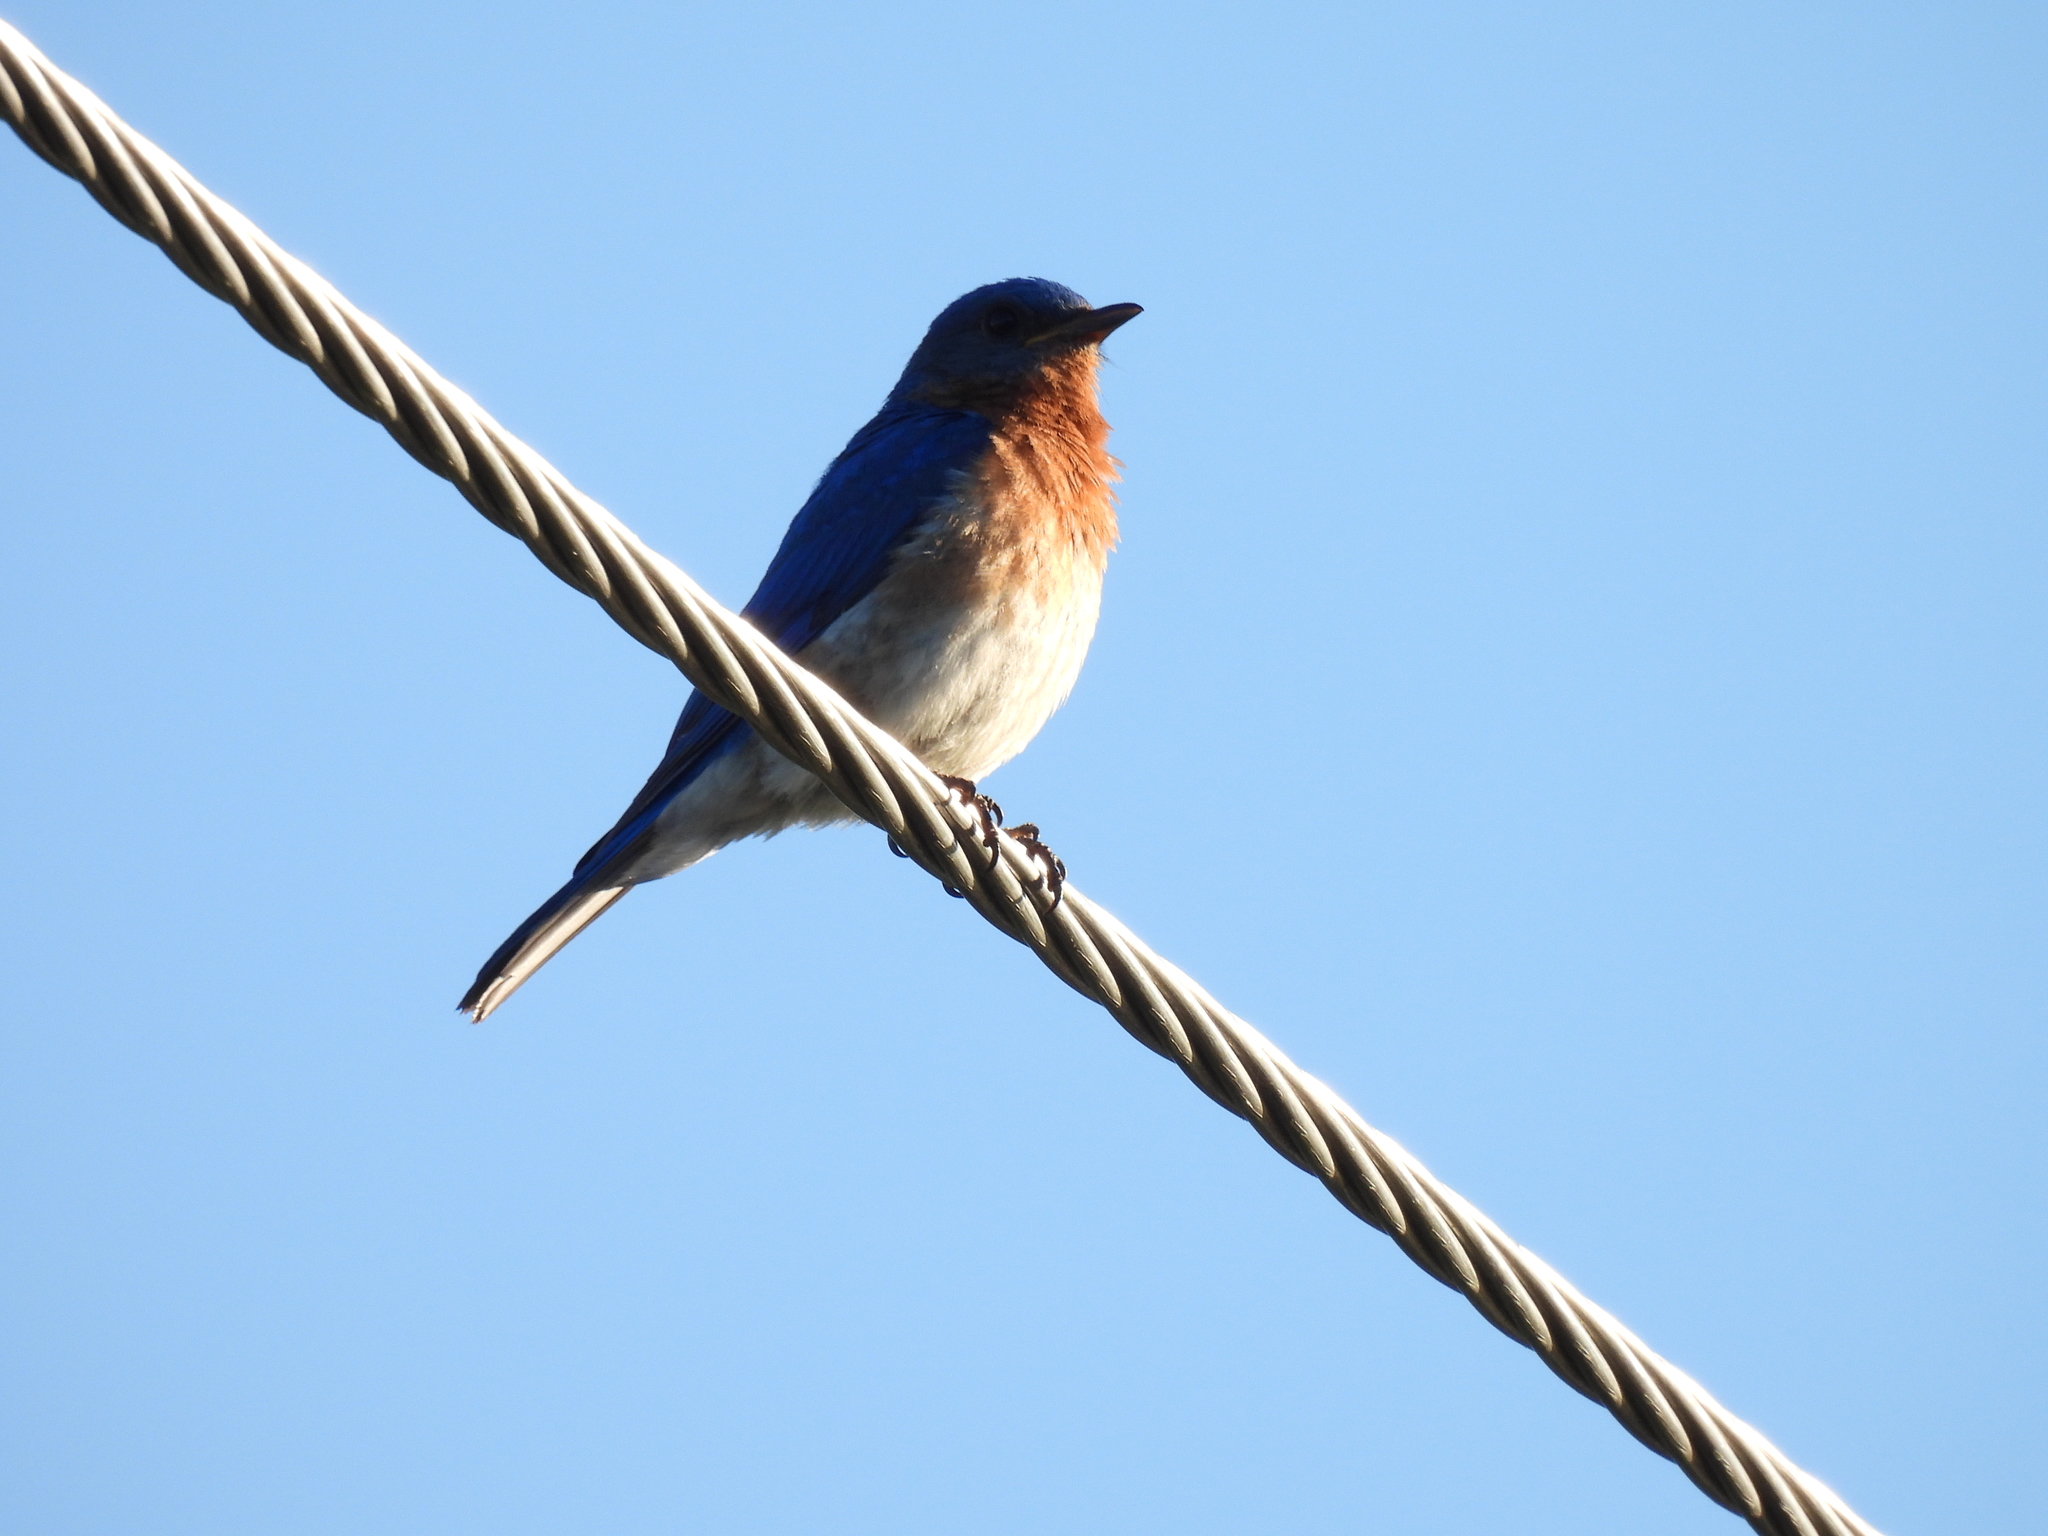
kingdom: Animalia
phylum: Chordata
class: Aves
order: Passeriformes
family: Turdidae
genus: Sialia
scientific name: Sialia sialis
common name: Eastern bluebird
